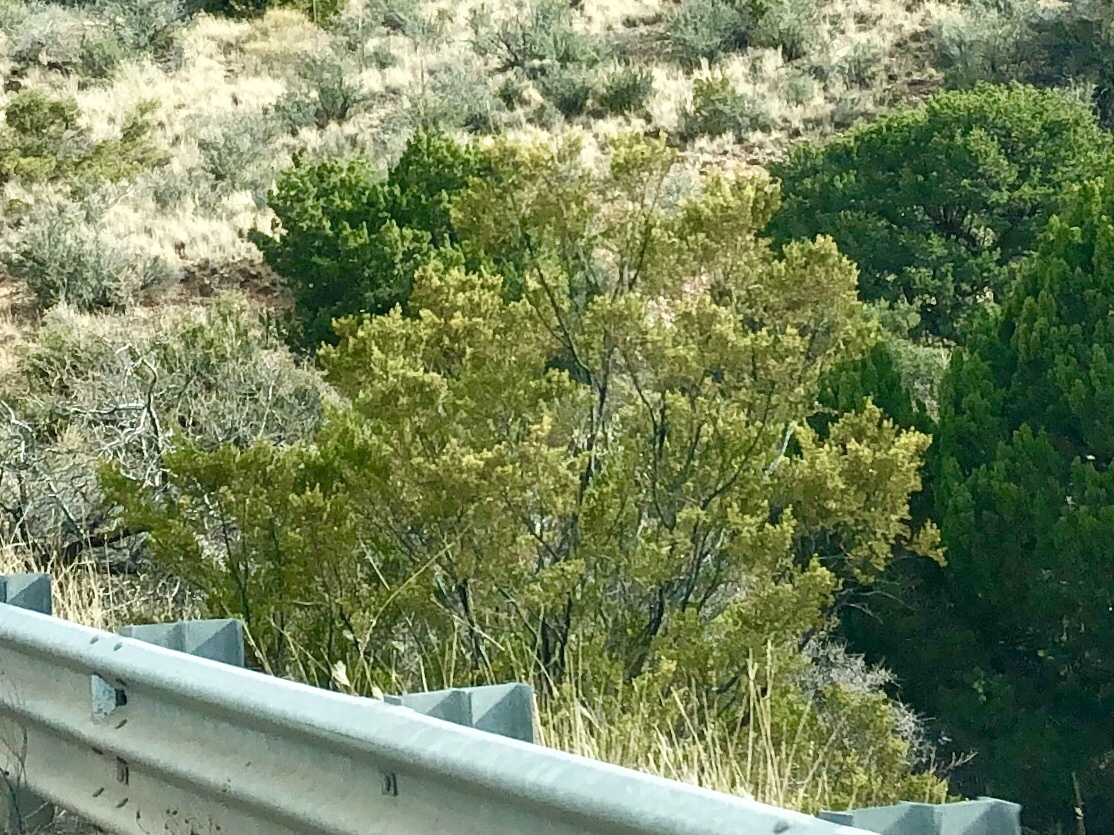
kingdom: Plantae
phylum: Tracheophyta
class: Magnoliopsida
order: Zygophyllales
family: Zygophyllaceae
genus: Larrea
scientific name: Larrea tridentata
